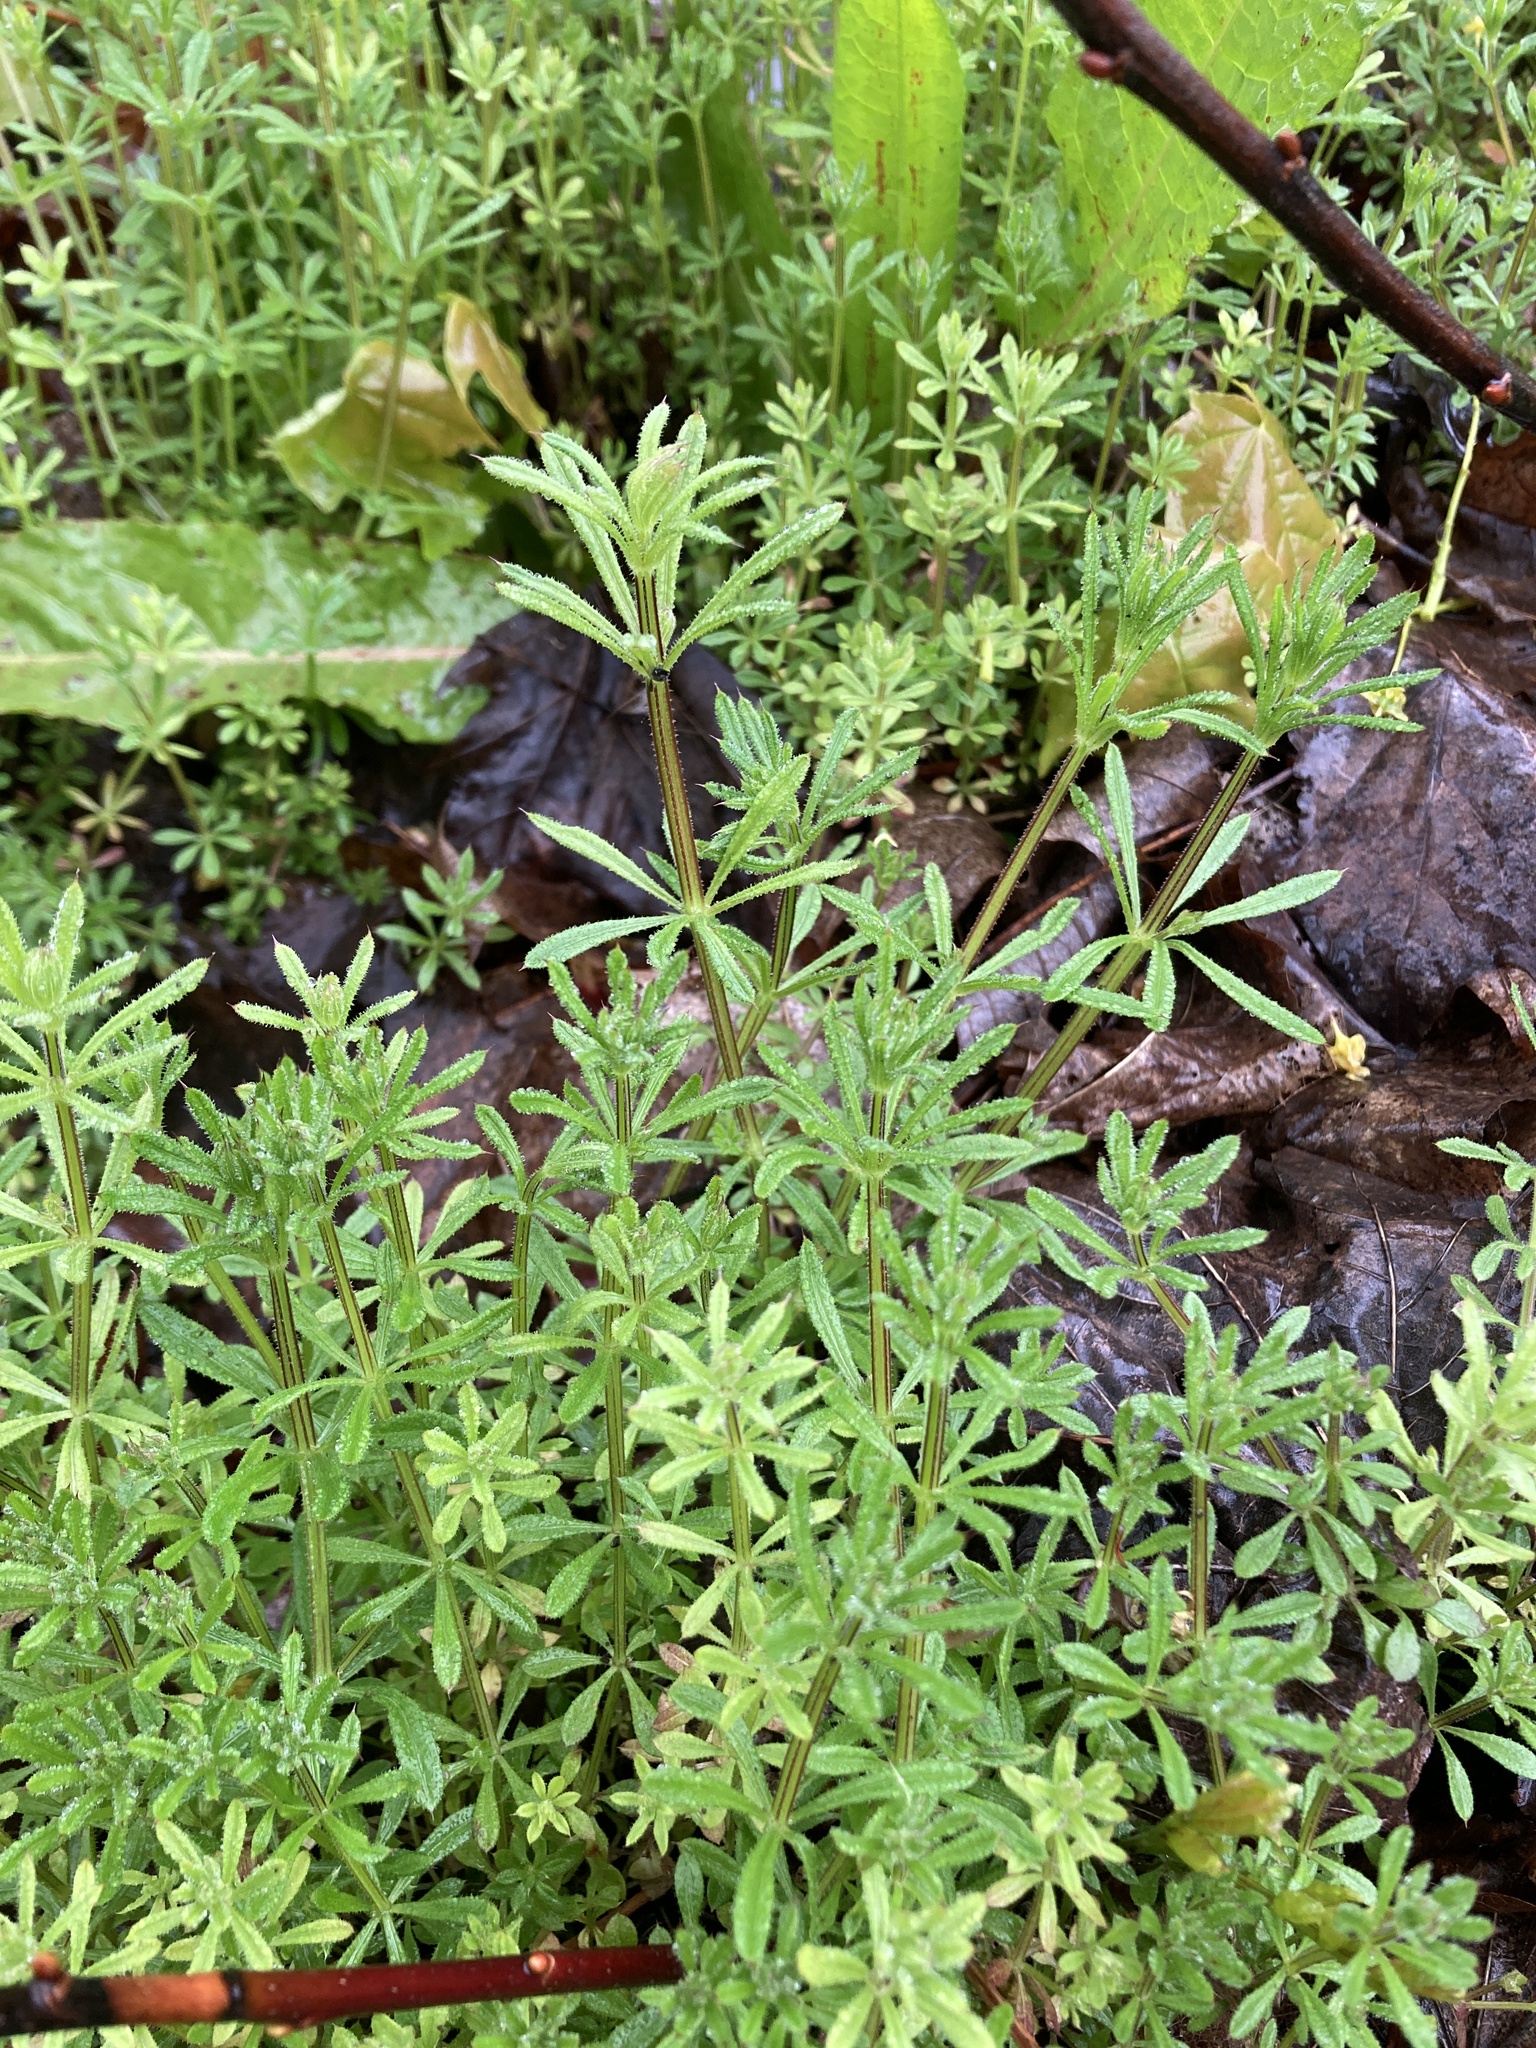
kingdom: Plantae
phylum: Tracheophyta
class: Magnoliopsida
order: Gentianales
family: Rubiaceae
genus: Galium
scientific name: Galium aparine
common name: Cleavers
